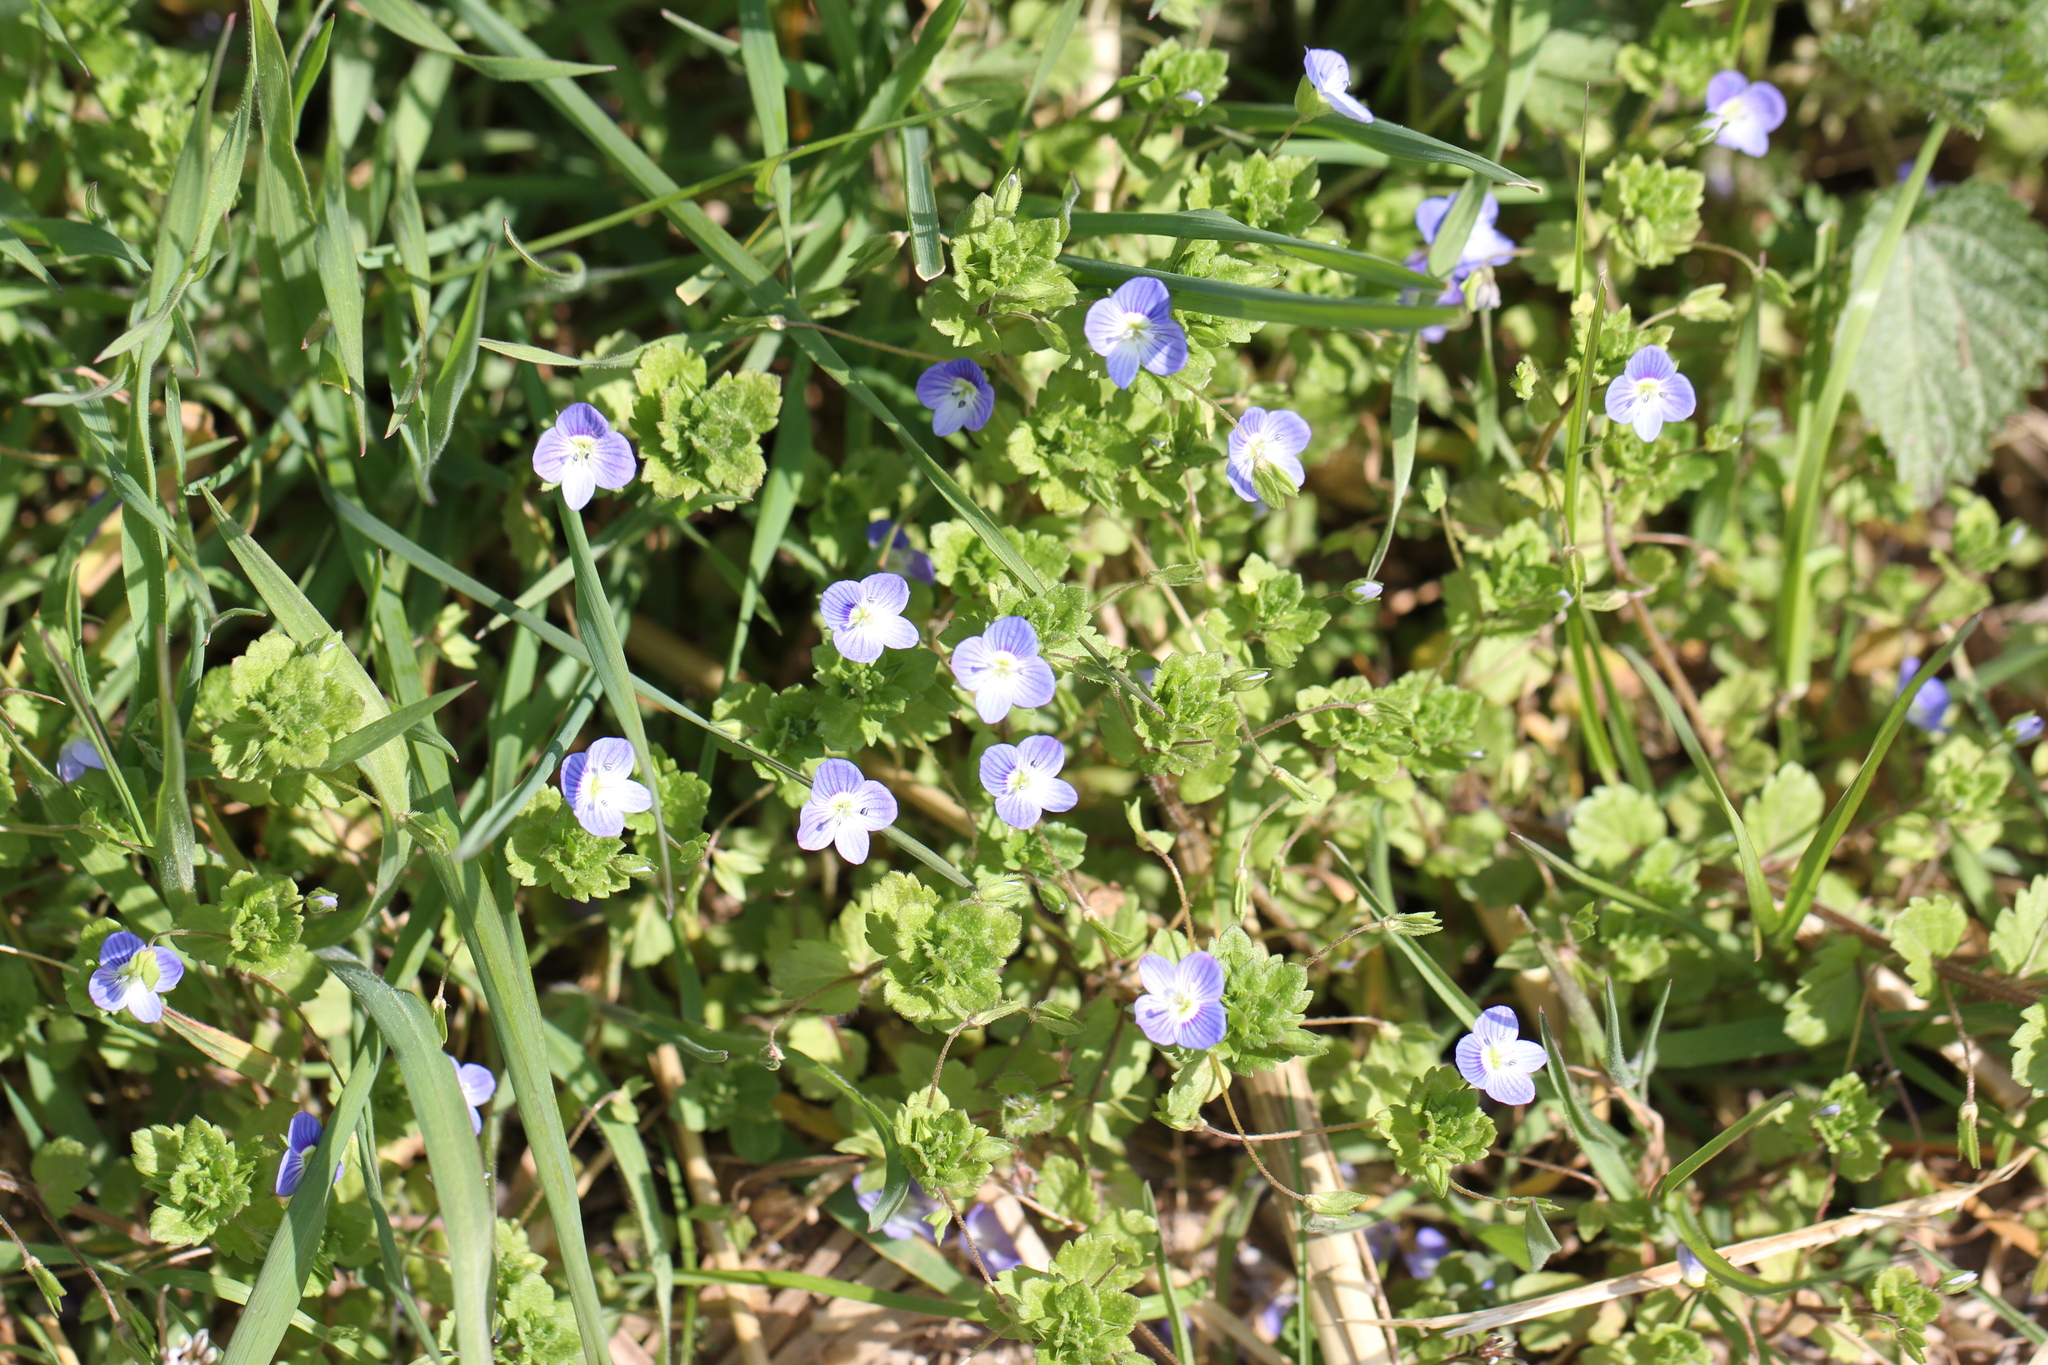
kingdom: Plantae
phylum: Tracheophyta
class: Magnoliopsida
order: Lamiales
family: Plantaginaceae
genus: Veronica
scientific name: Veronica persica
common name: Common field-speedwell
